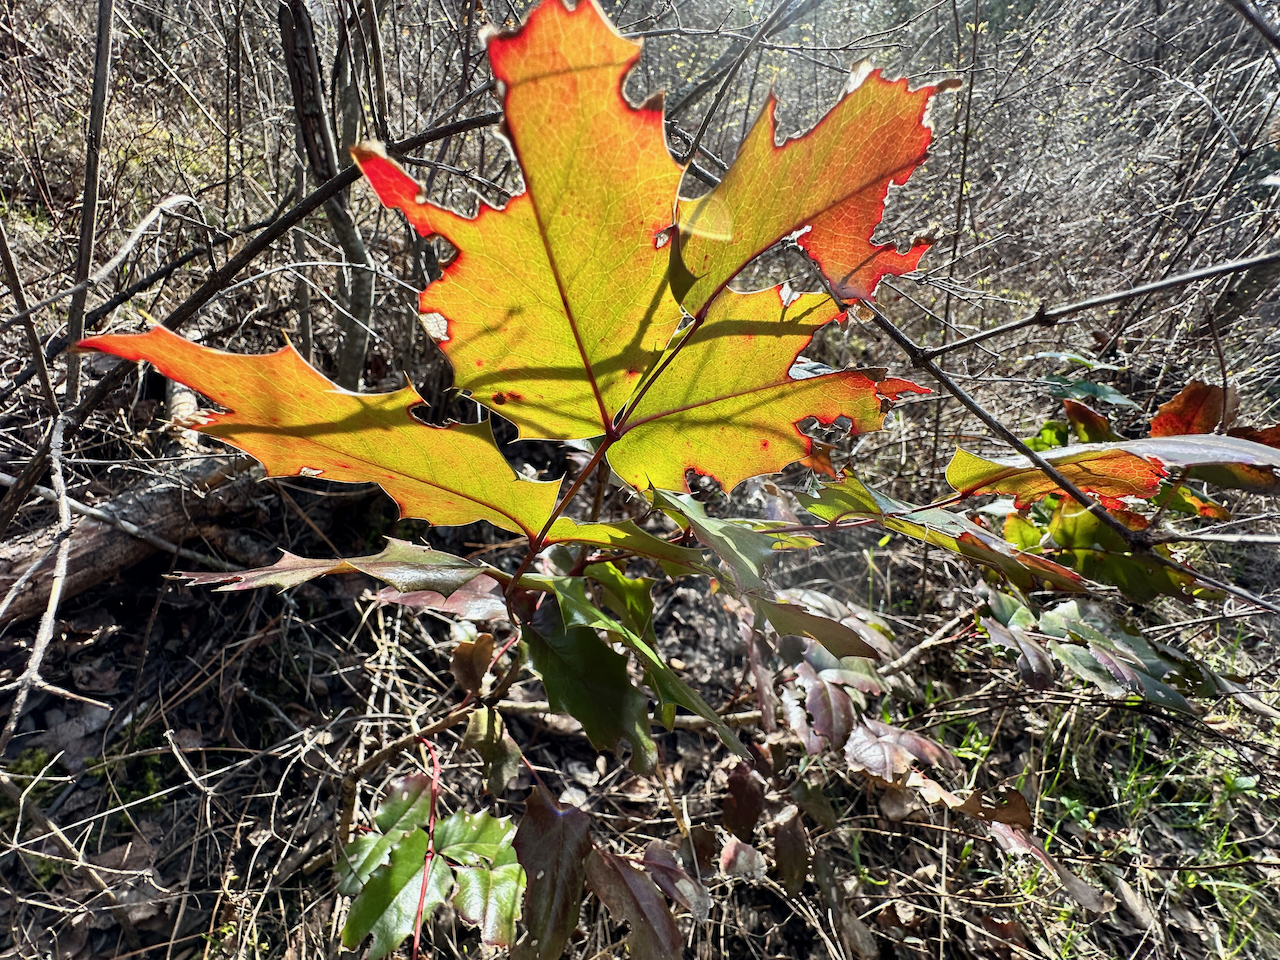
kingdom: Plantae
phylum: Tracheophyta
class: Magnoliopsida
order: Ranunculales
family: Berberidaceae
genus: Mahonia
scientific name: Mahonia aquifolium
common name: Oregon-grape
